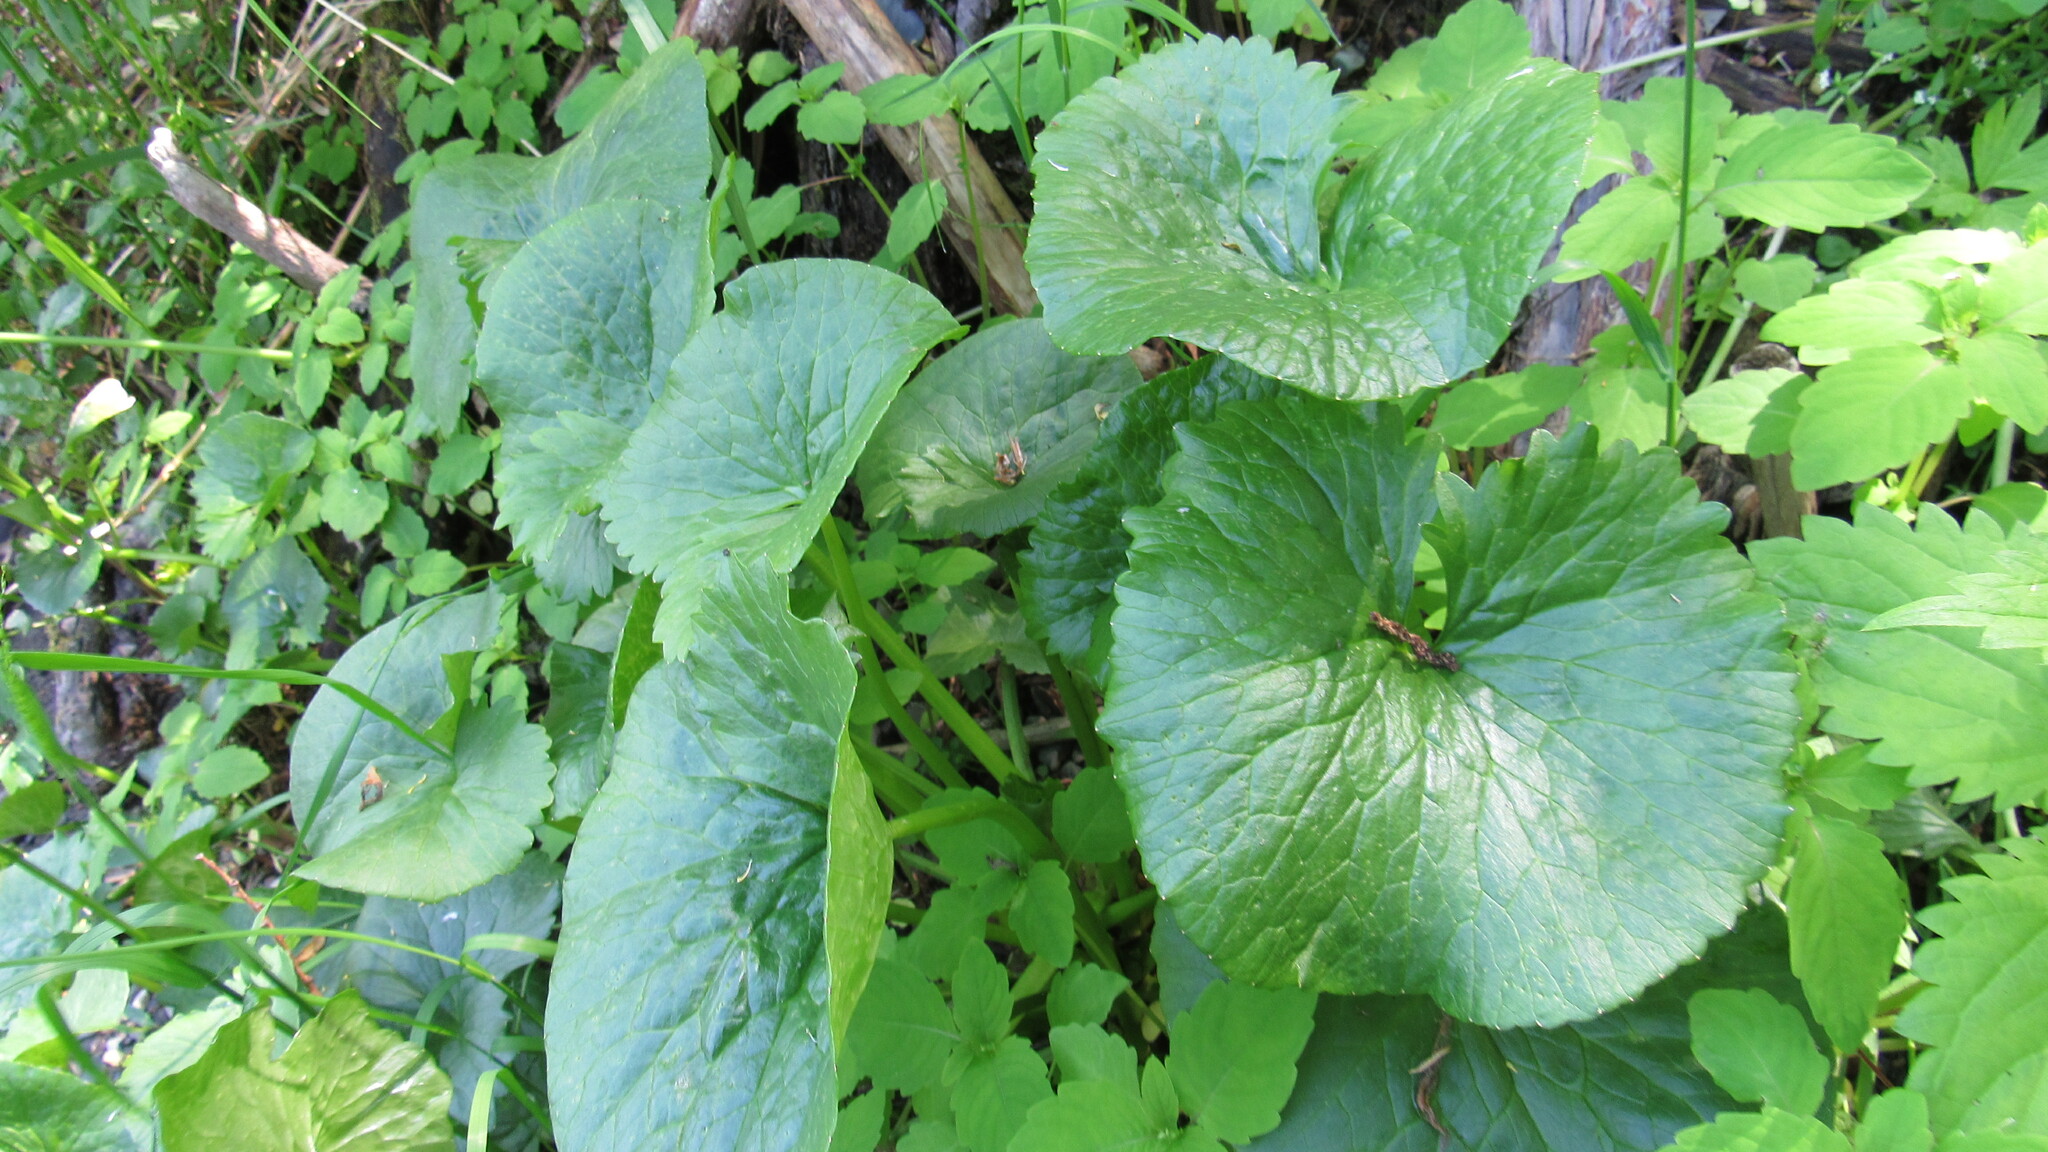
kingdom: Plantae
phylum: Tracheophyta
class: Magnoliopsida
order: Ranunculales
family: Ranunculaceae
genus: Caltha
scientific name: Caltha palustris
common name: Marsh marigold
